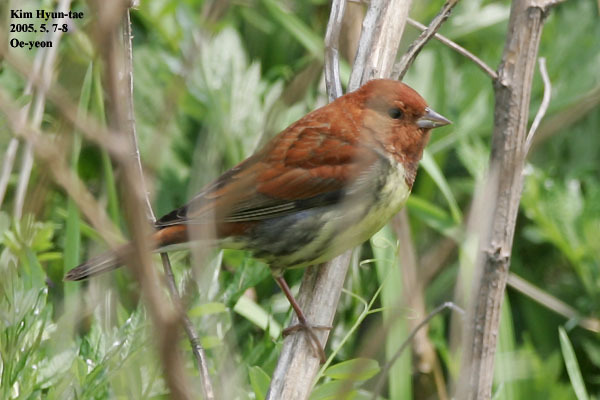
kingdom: Animalia
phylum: Chordata
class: Aves
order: Passeriformes
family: Emberizidae
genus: Emberiza
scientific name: Emberiza rutila
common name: Chestnut bunting
